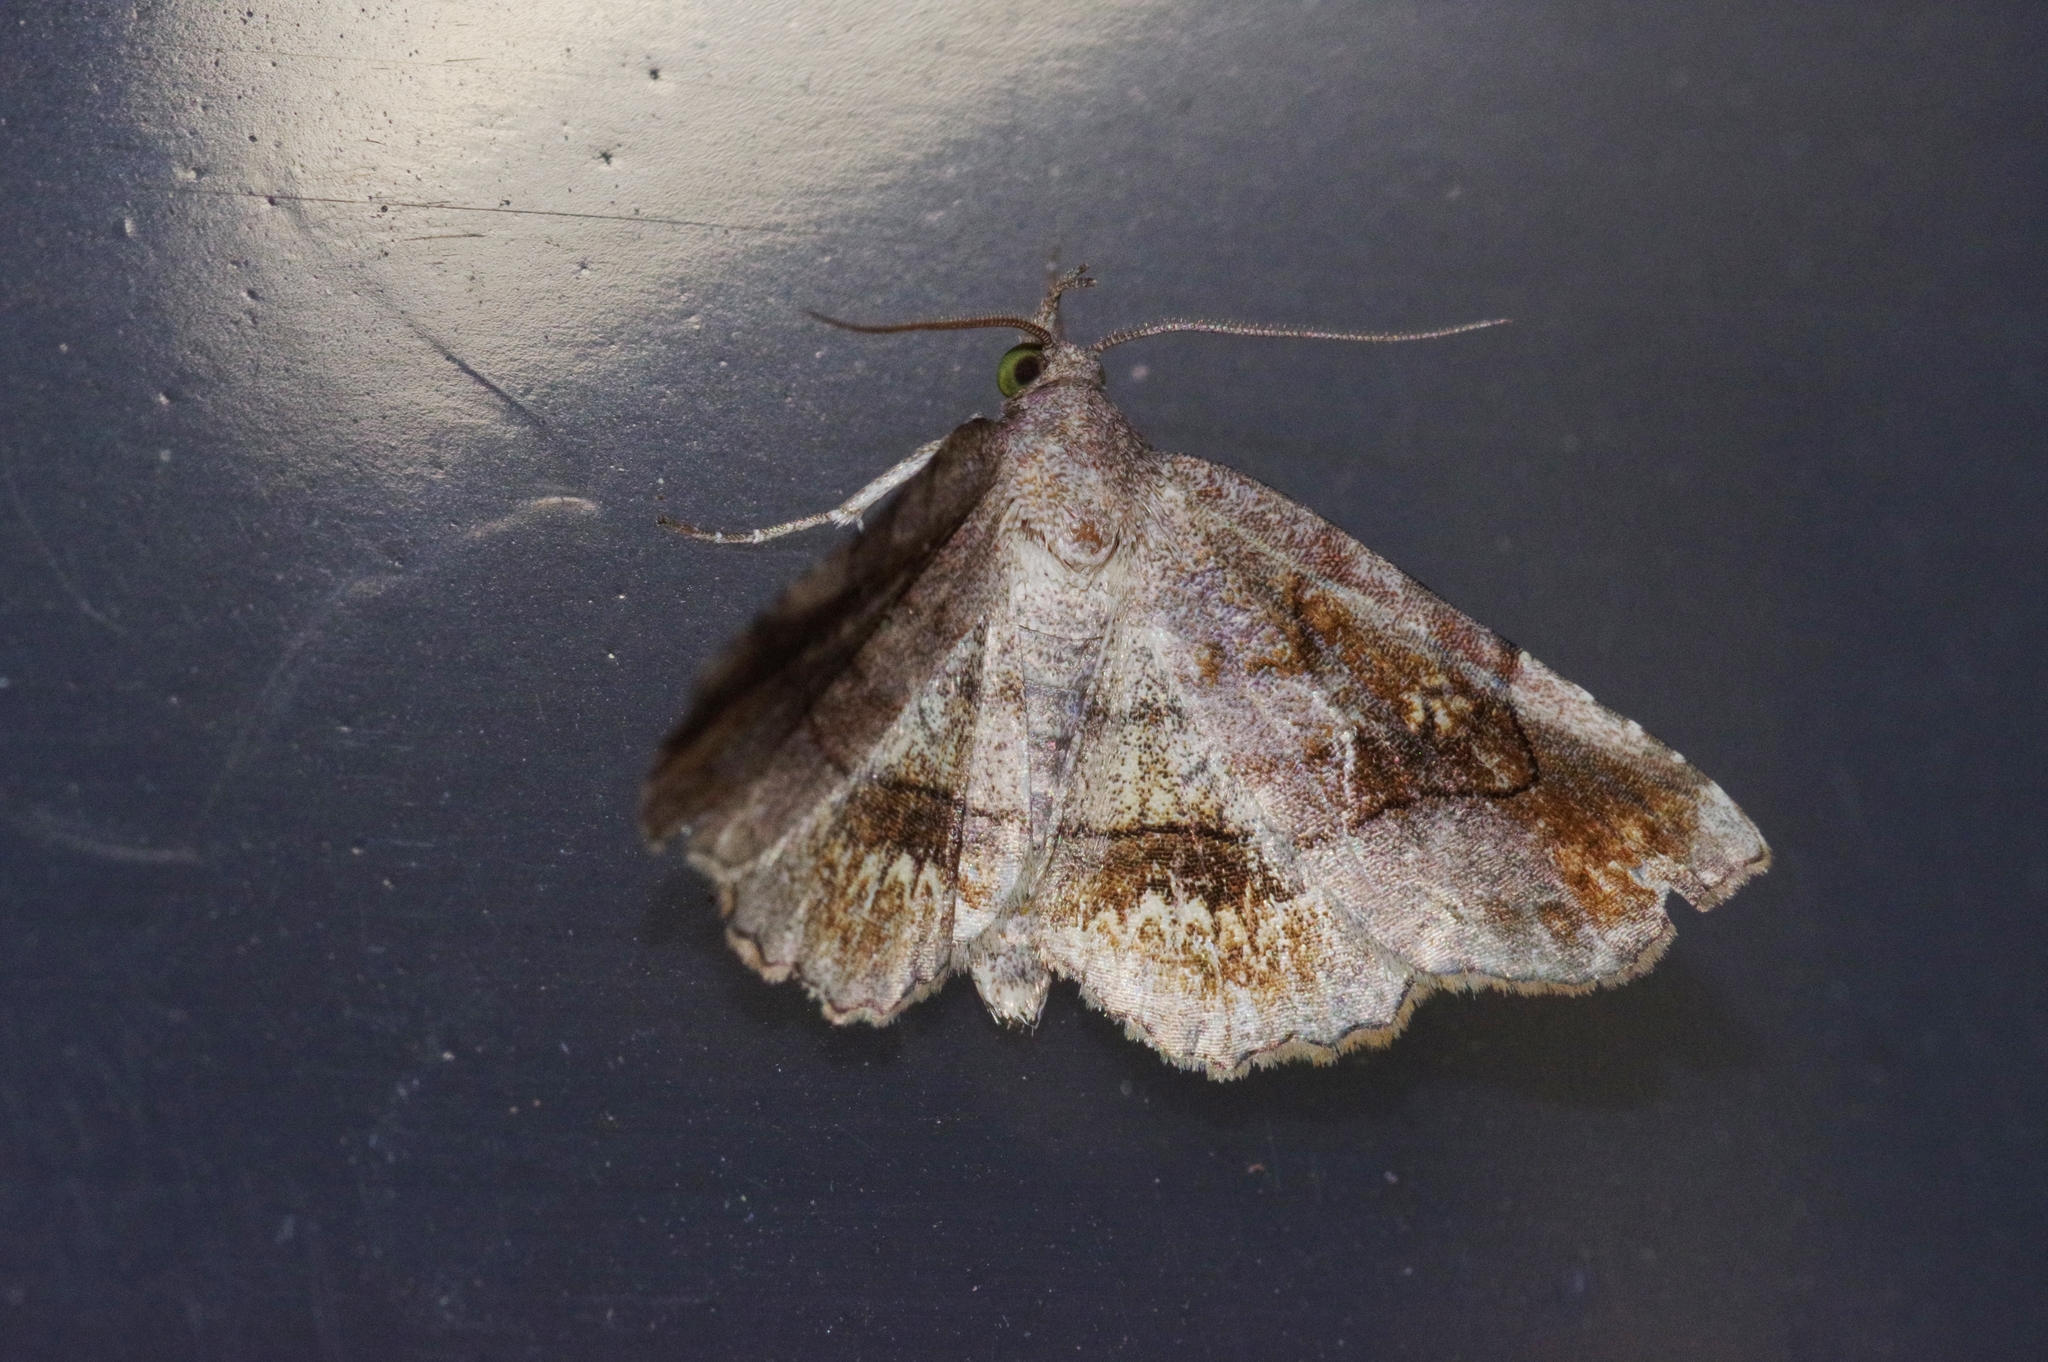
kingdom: Animalia
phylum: Arthropoda
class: Insecta
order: Lepidoptera
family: Erebidae
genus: Pangrapta
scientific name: Pangrapta flavomacula
